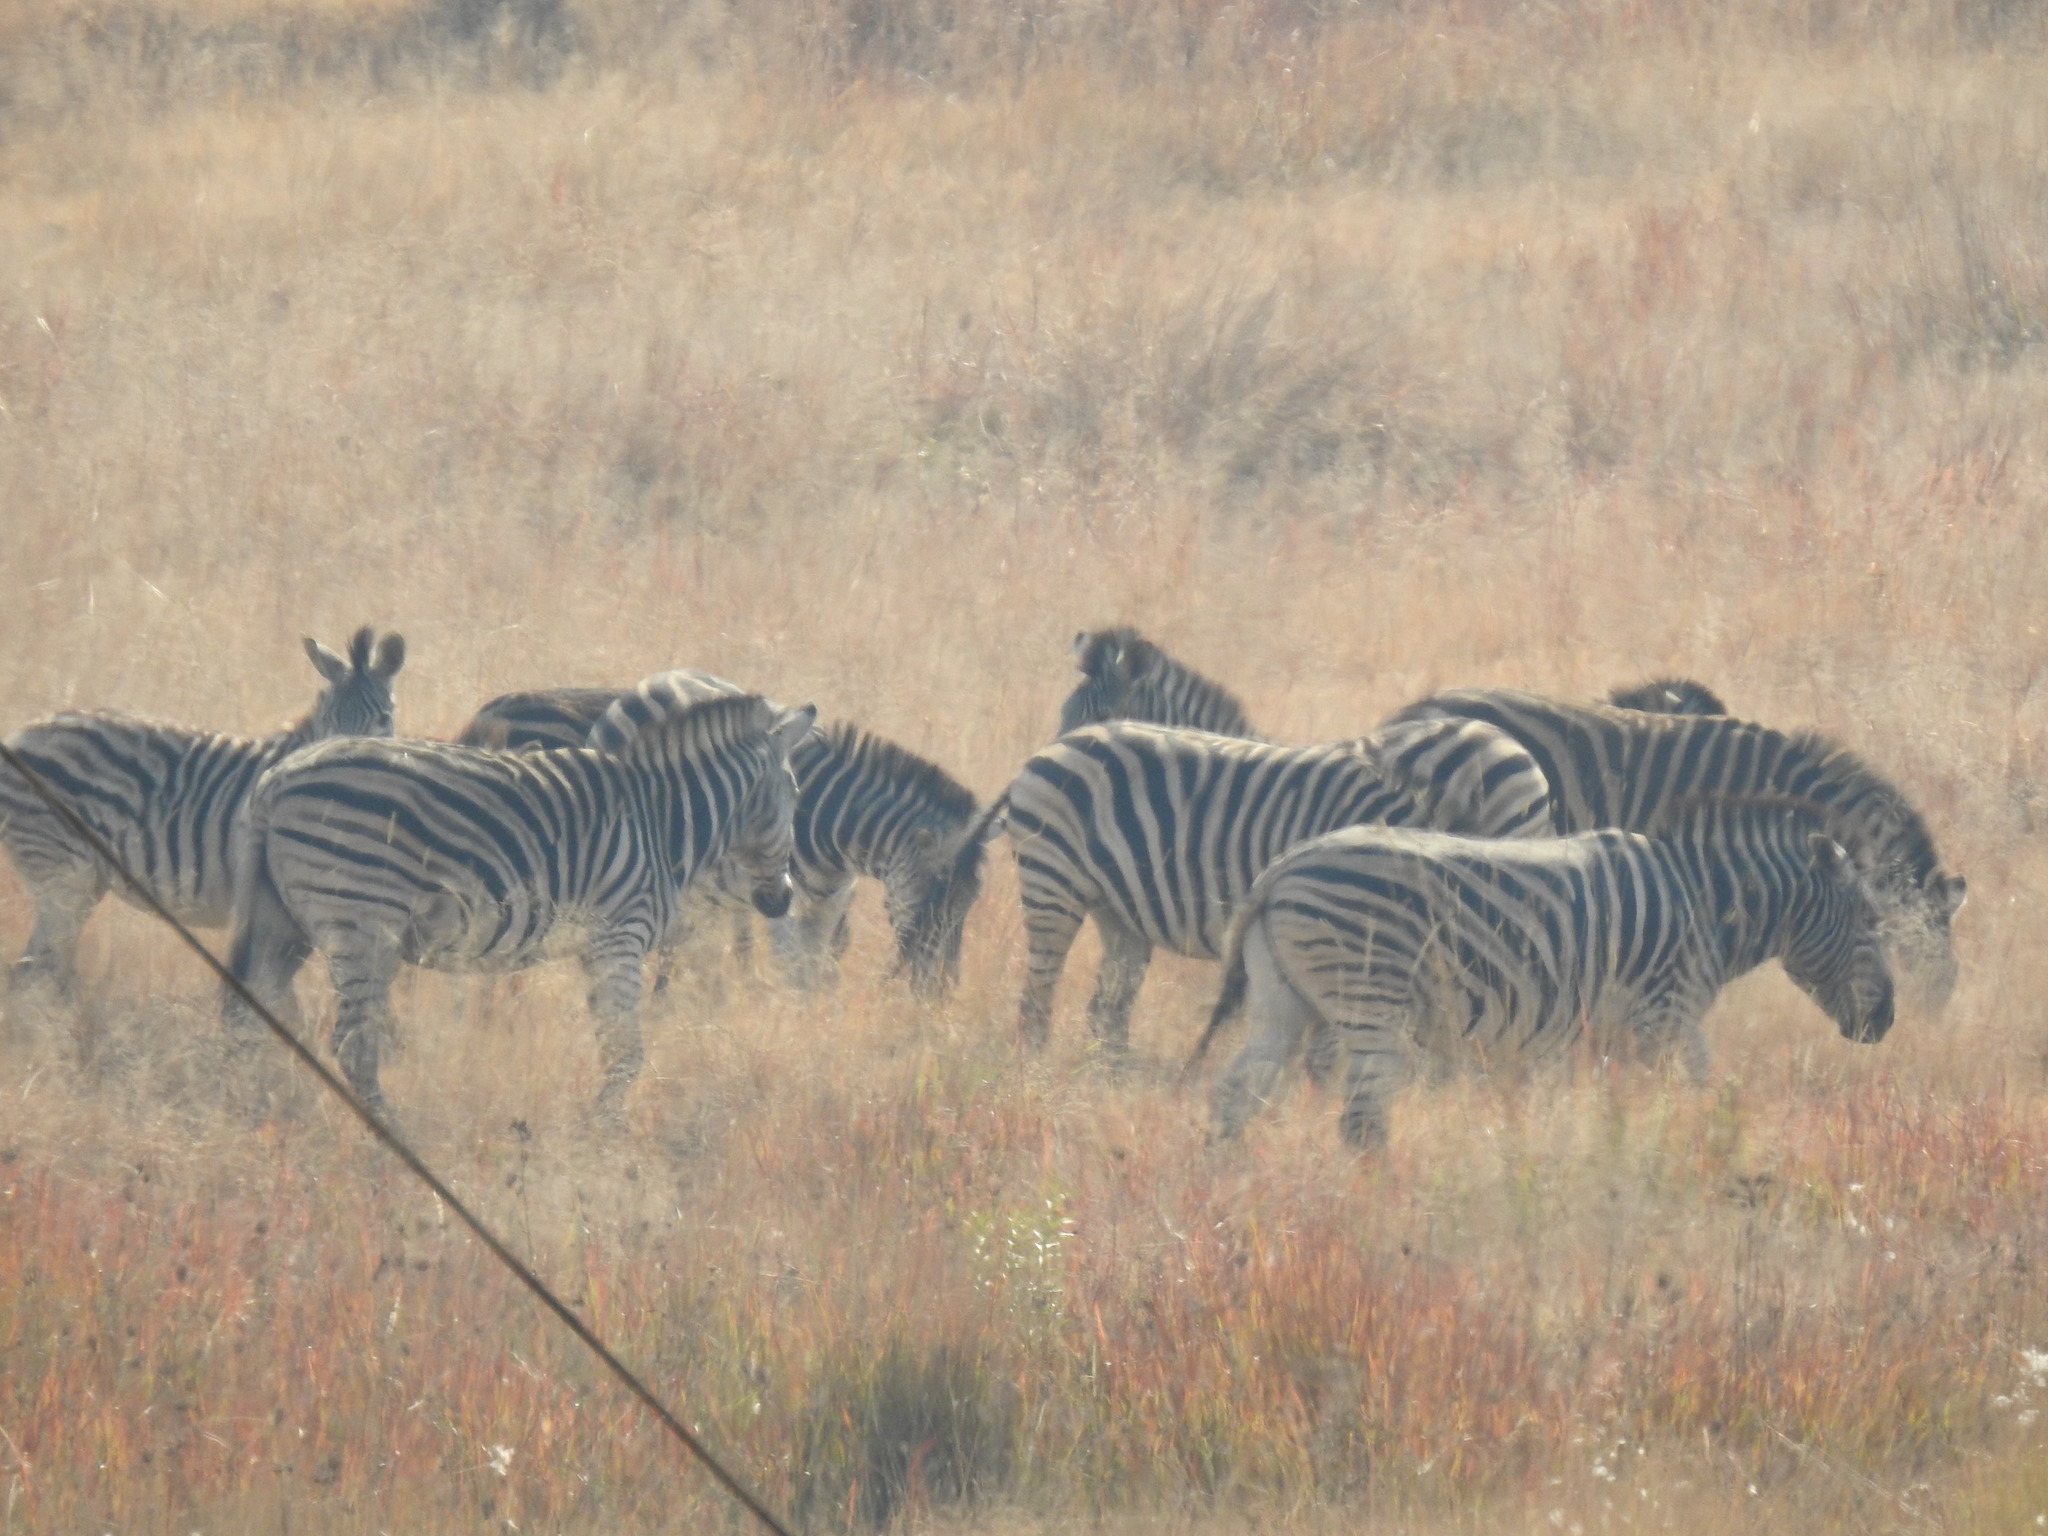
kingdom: Animalia
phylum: Chordata
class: Mammalia
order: Perissodactyla
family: Equidae
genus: Equus
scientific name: Equus quagga
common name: Plains zebra
